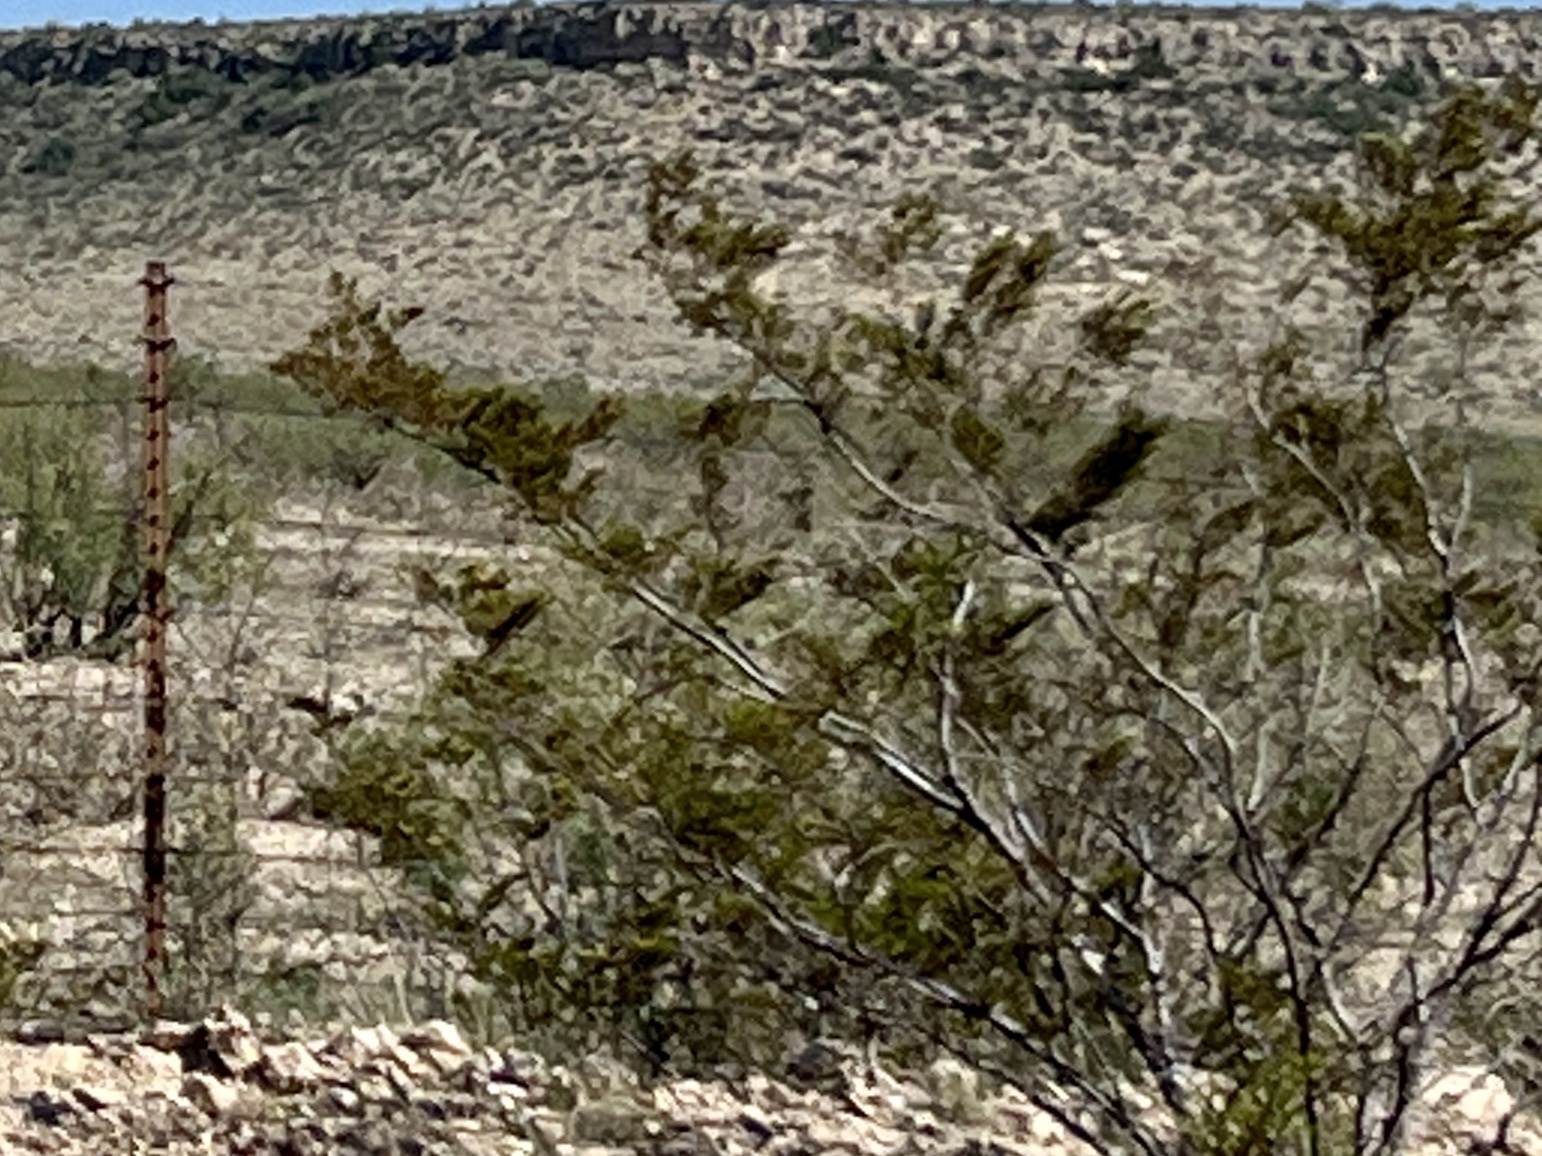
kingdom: Plantae
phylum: Tracheophyta
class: Magnoliopsida
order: Zygophyllales
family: Zygophyllaceae
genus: Larrea
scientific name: Larrea tridentata
